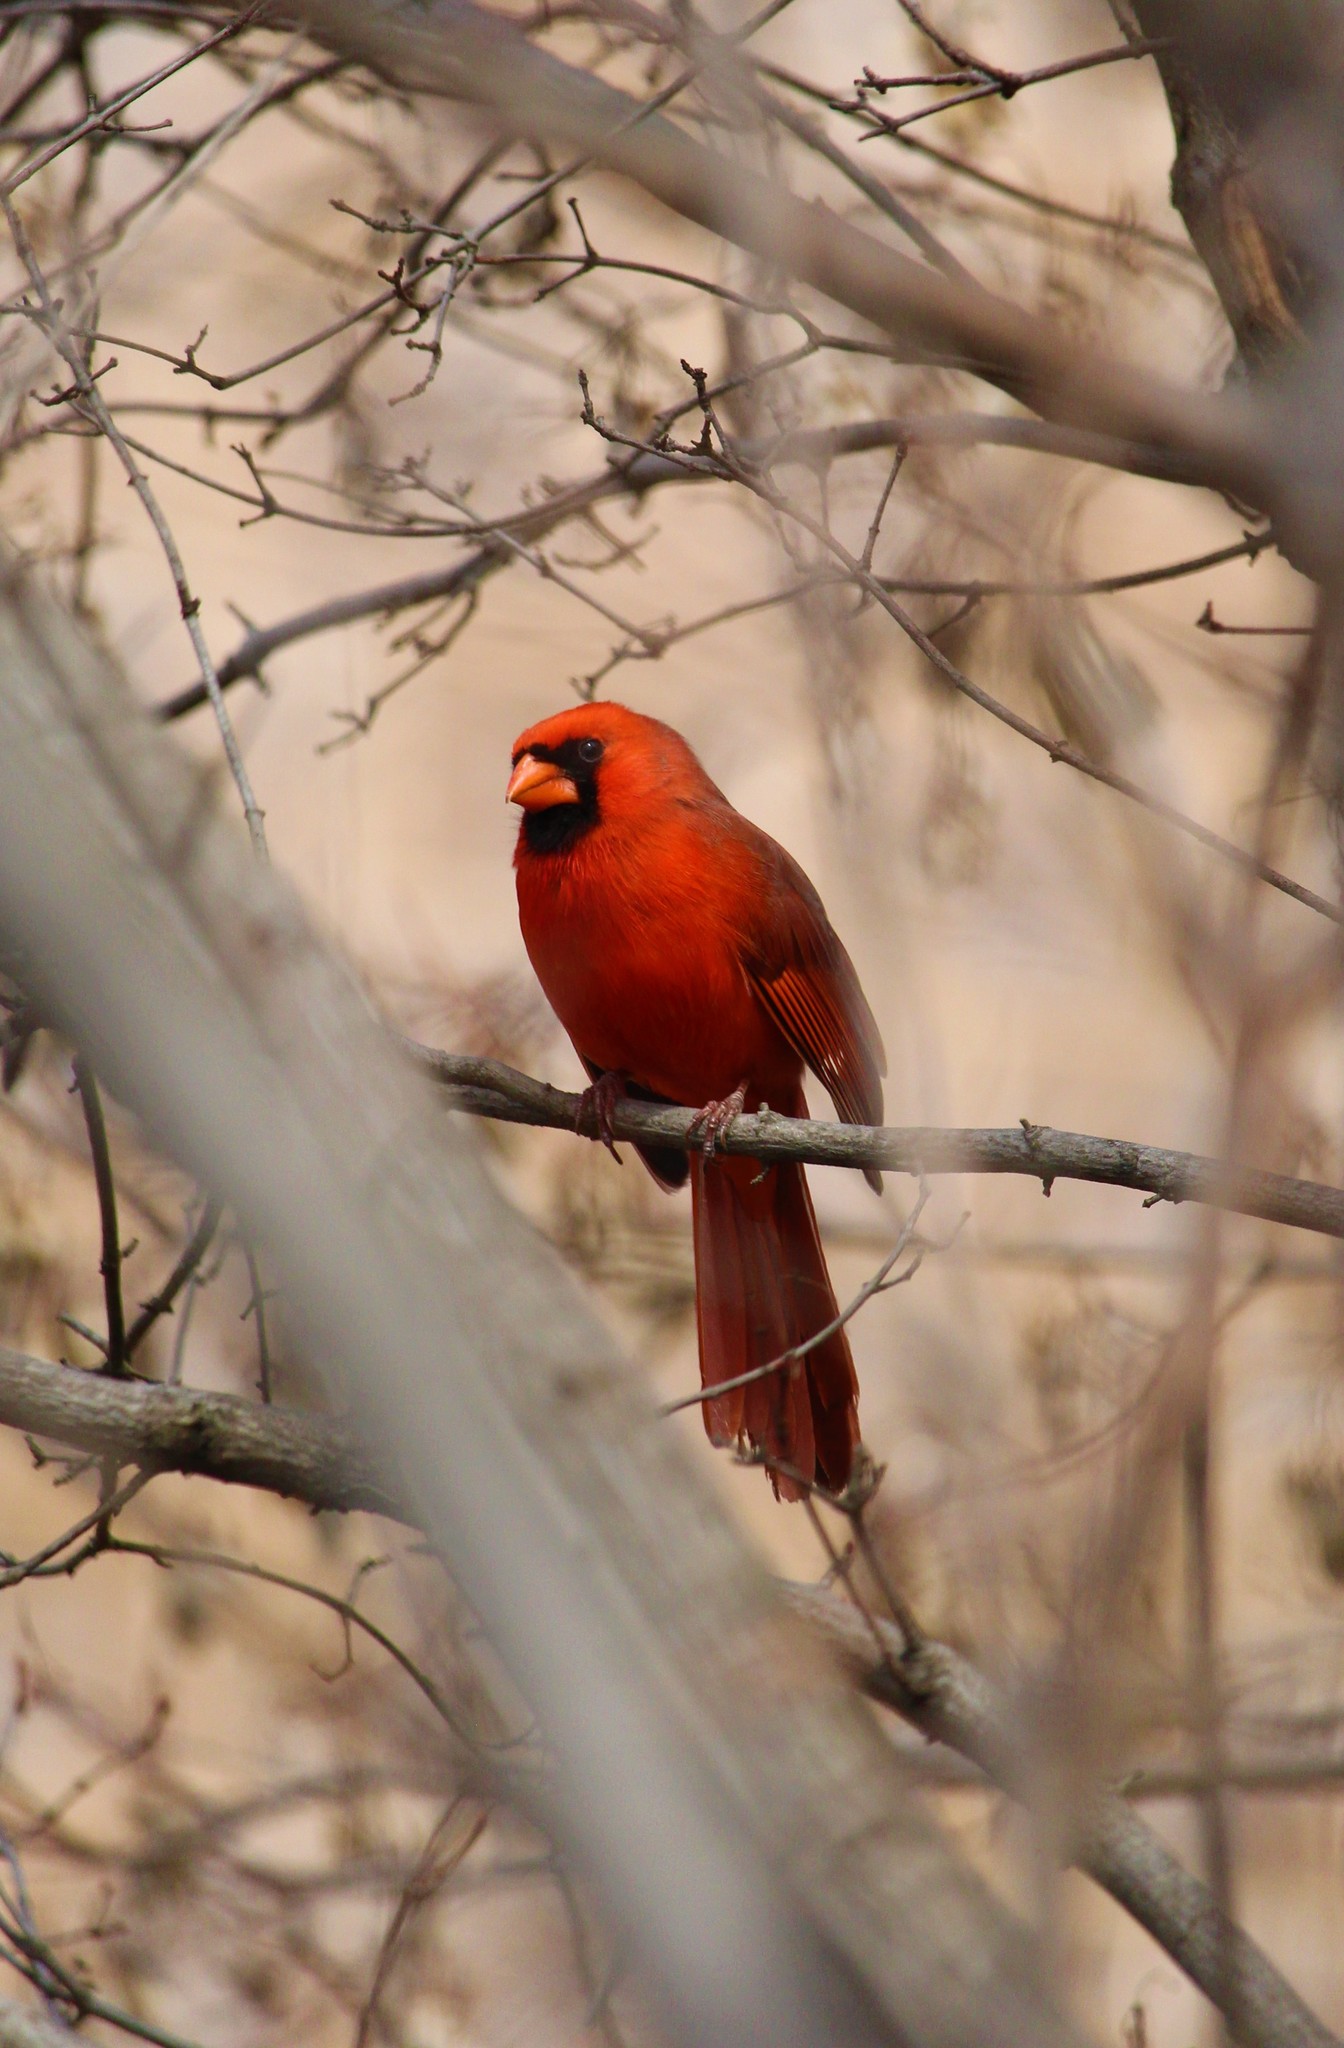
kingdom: Animalia
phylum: Chordata
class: Aves
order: Passeriformes
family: Cardinalidae
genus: Cardinalis
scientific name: Cardinalis cardinalis
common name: Northern cardinal
